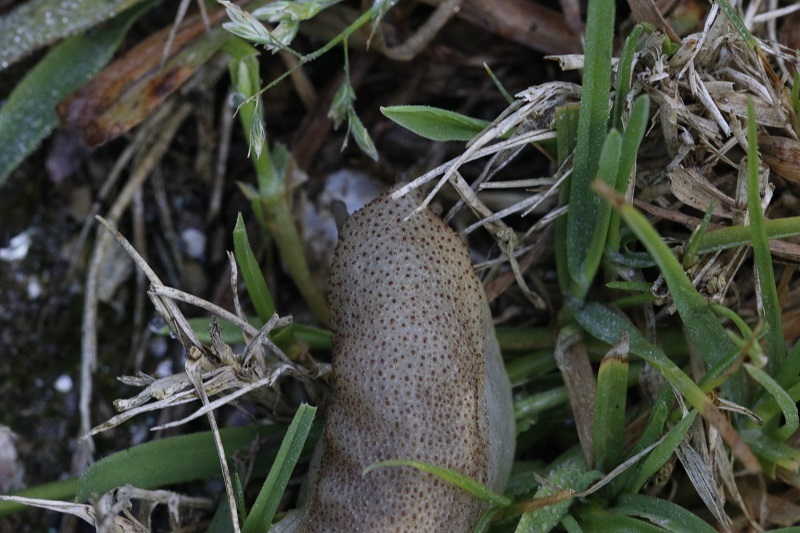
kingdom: Animalia
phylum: Mollusca
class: Gastropoda
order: Stylommatophora
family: Oopeltidae
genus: Oopelta
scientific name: Oopelta capensis
